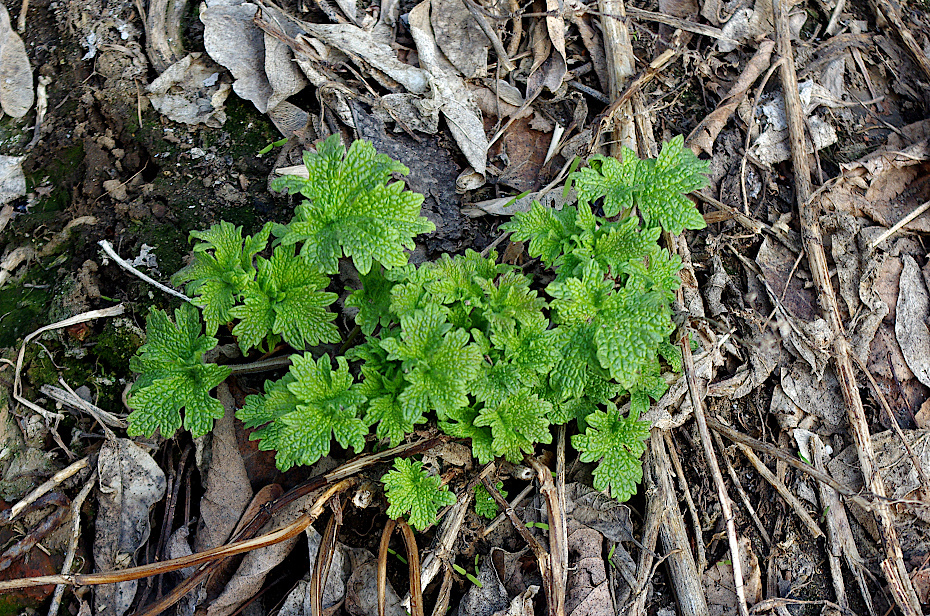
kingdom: Plantae
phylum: Tracheophyta
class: Magnoliopsida
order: Lamiales
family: Lamiaceae
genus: Leonurus
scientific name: Leonurus quinquelobatus
